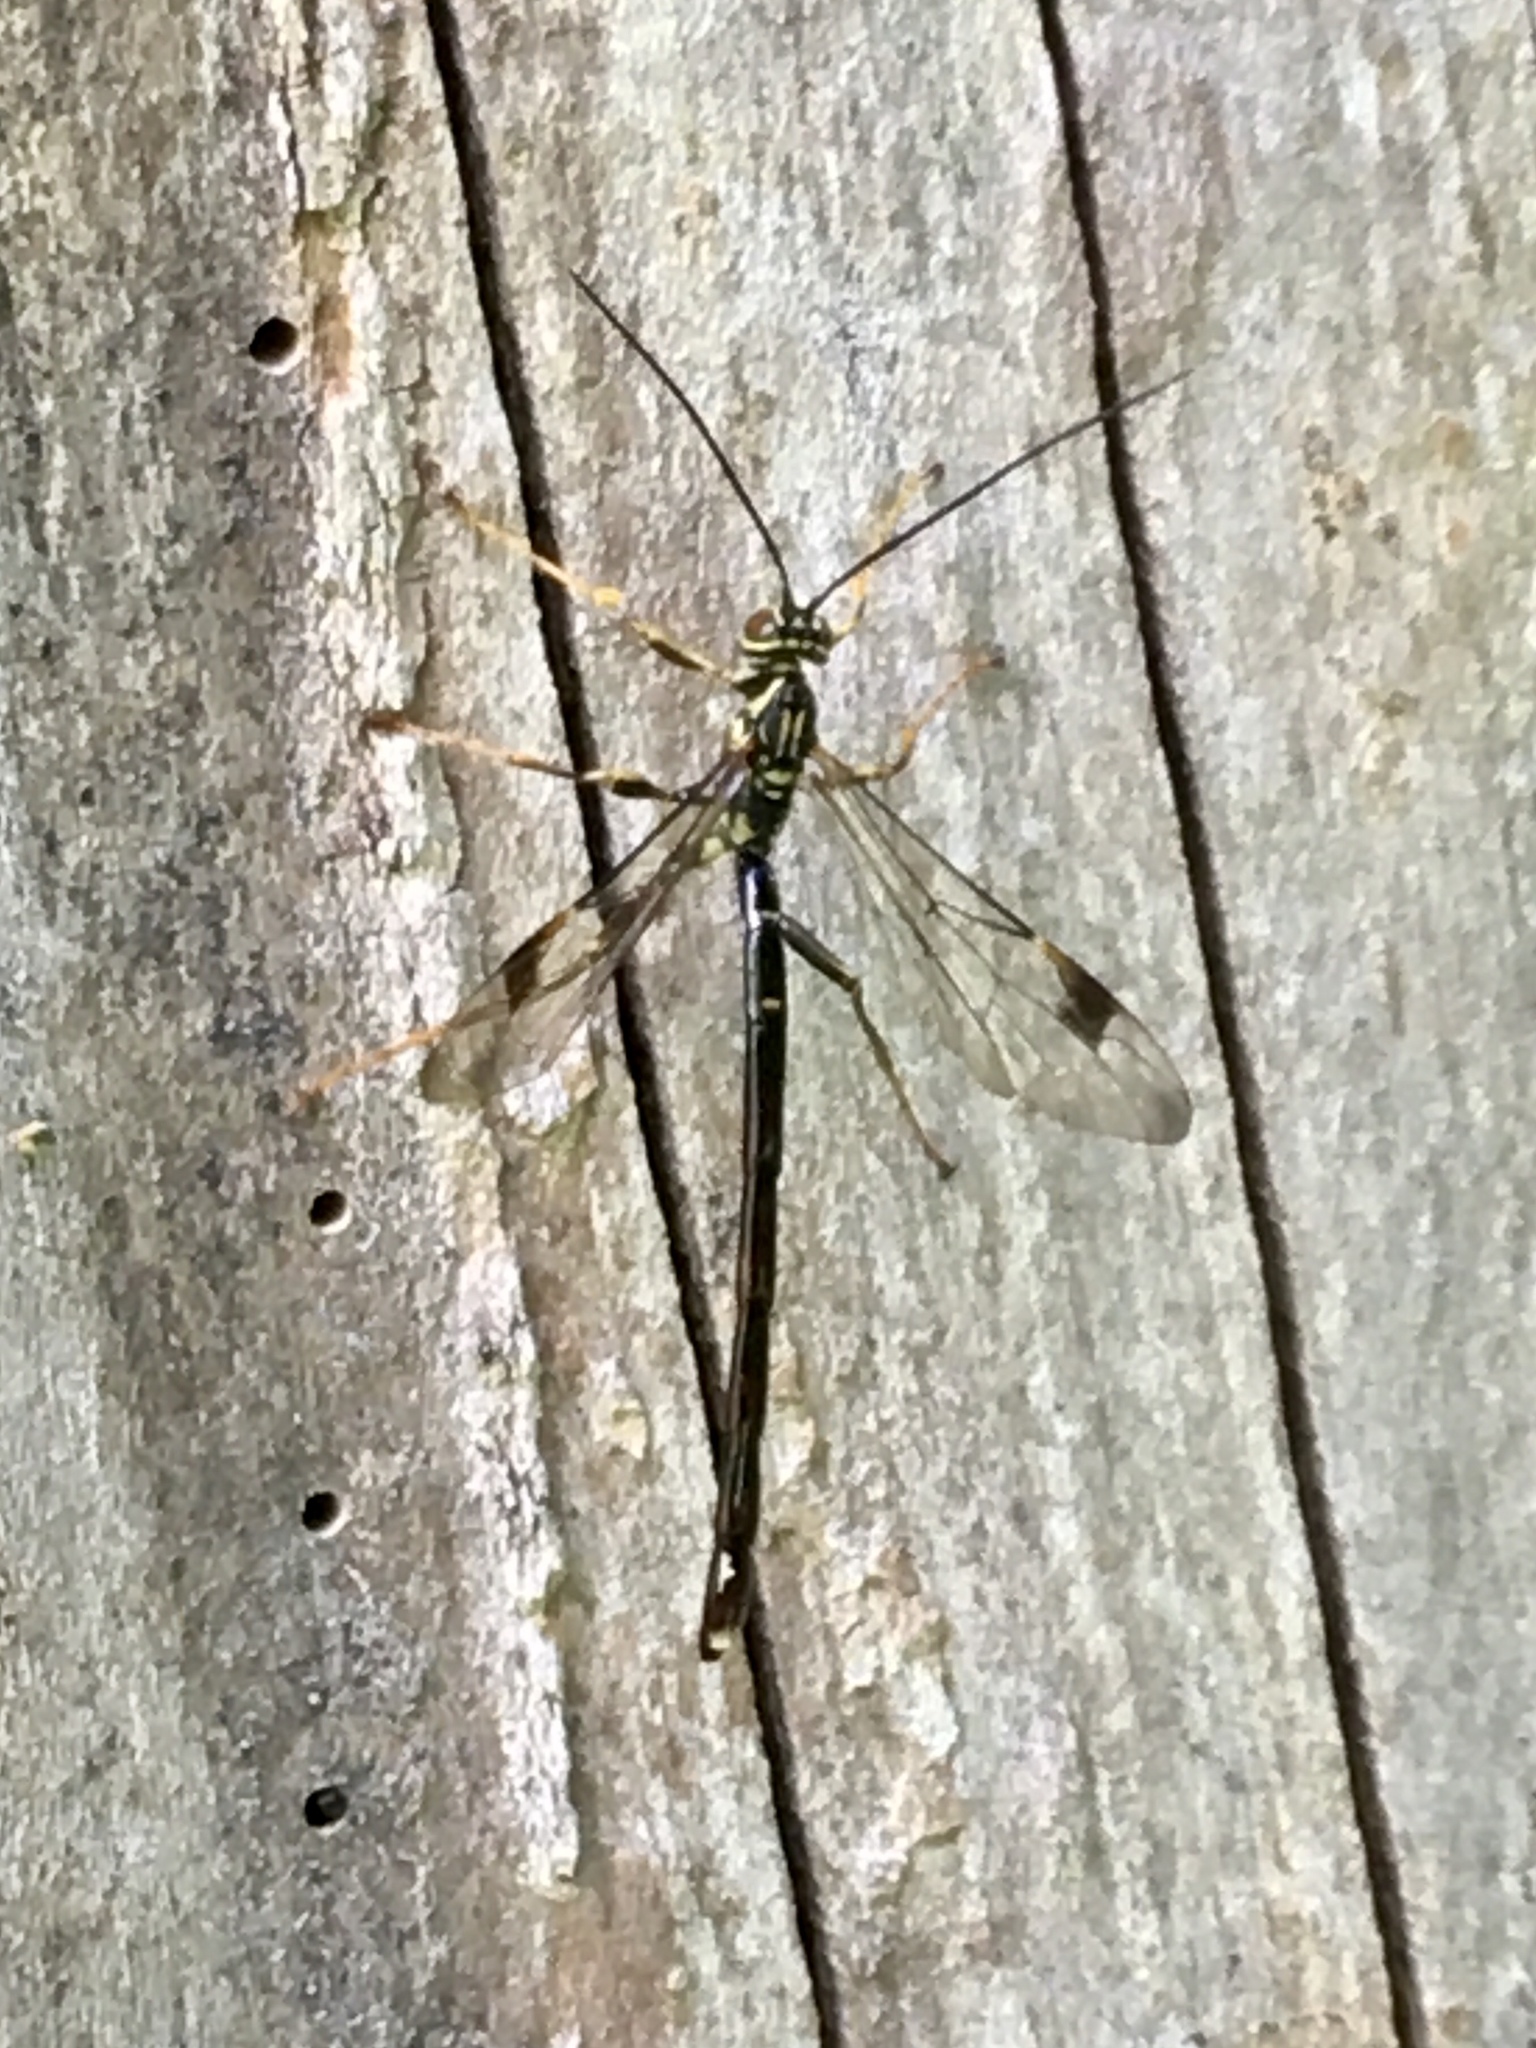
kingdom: Animalia
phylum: Arthropoda
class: Insecta
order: Hymenoptera
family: Ichneumonidae
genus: Megarhyssa
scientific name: Megarhyssa macrura
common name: Long-tailed giant ichneumonid wasp
